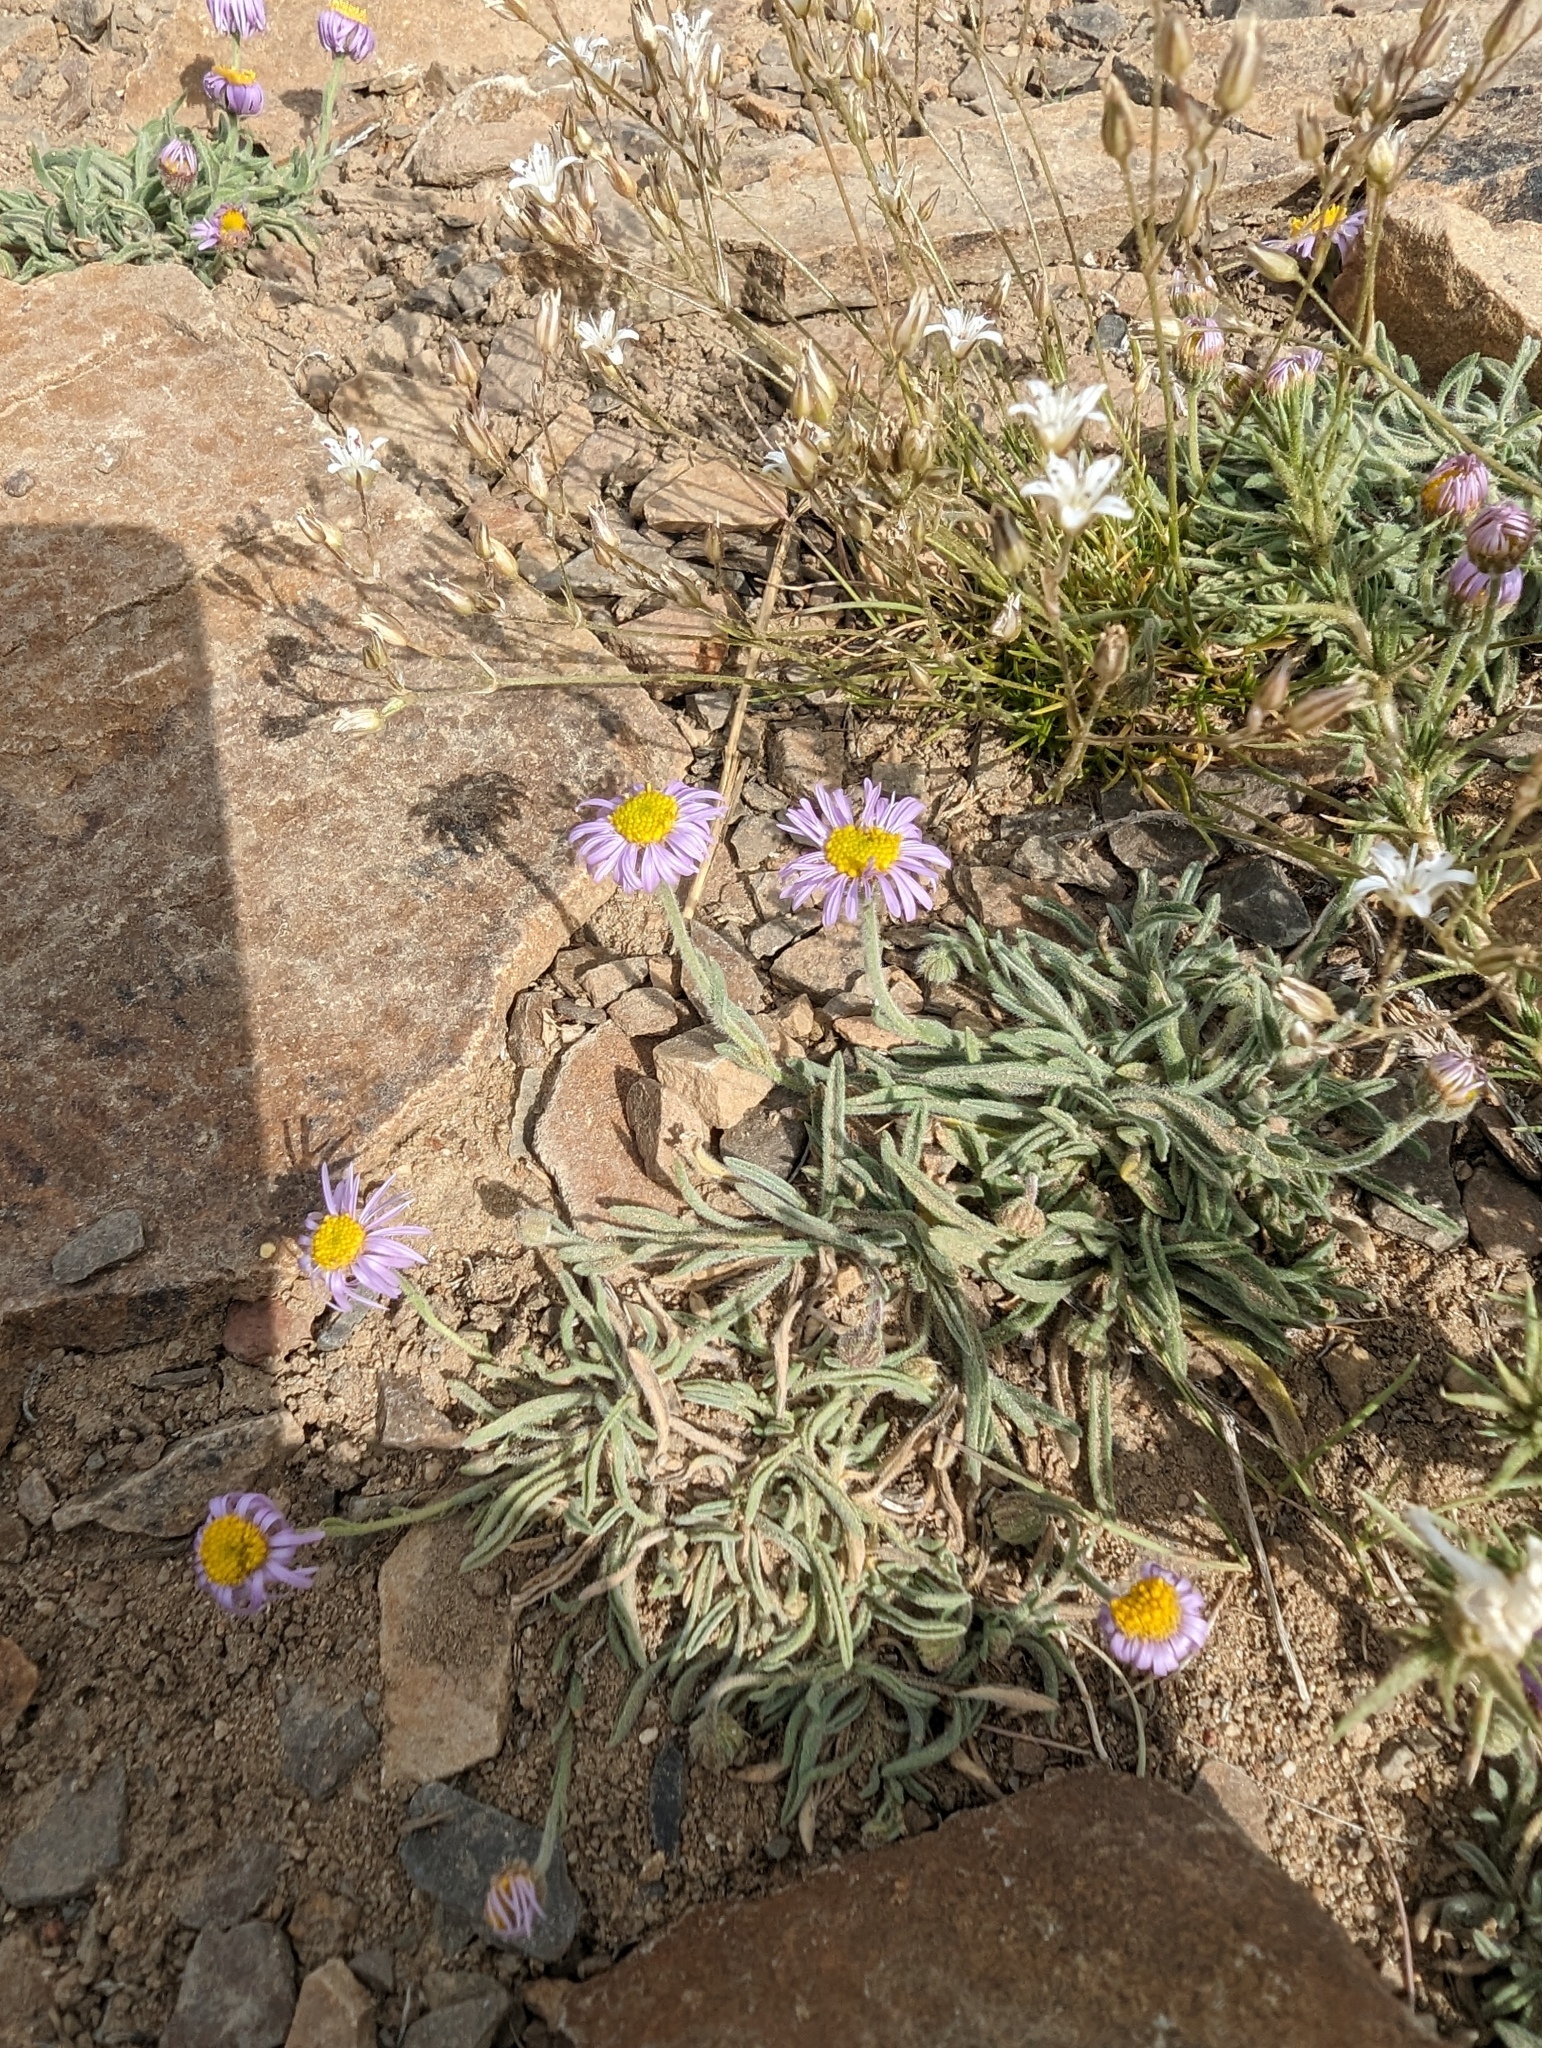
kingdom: Plantae
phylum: Tracheophyta
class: Magnoliopsida
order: Asterales
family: Asteraceae
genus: Erigeron
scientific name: Erigeron clokeyi
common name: Clokey's fleabane
